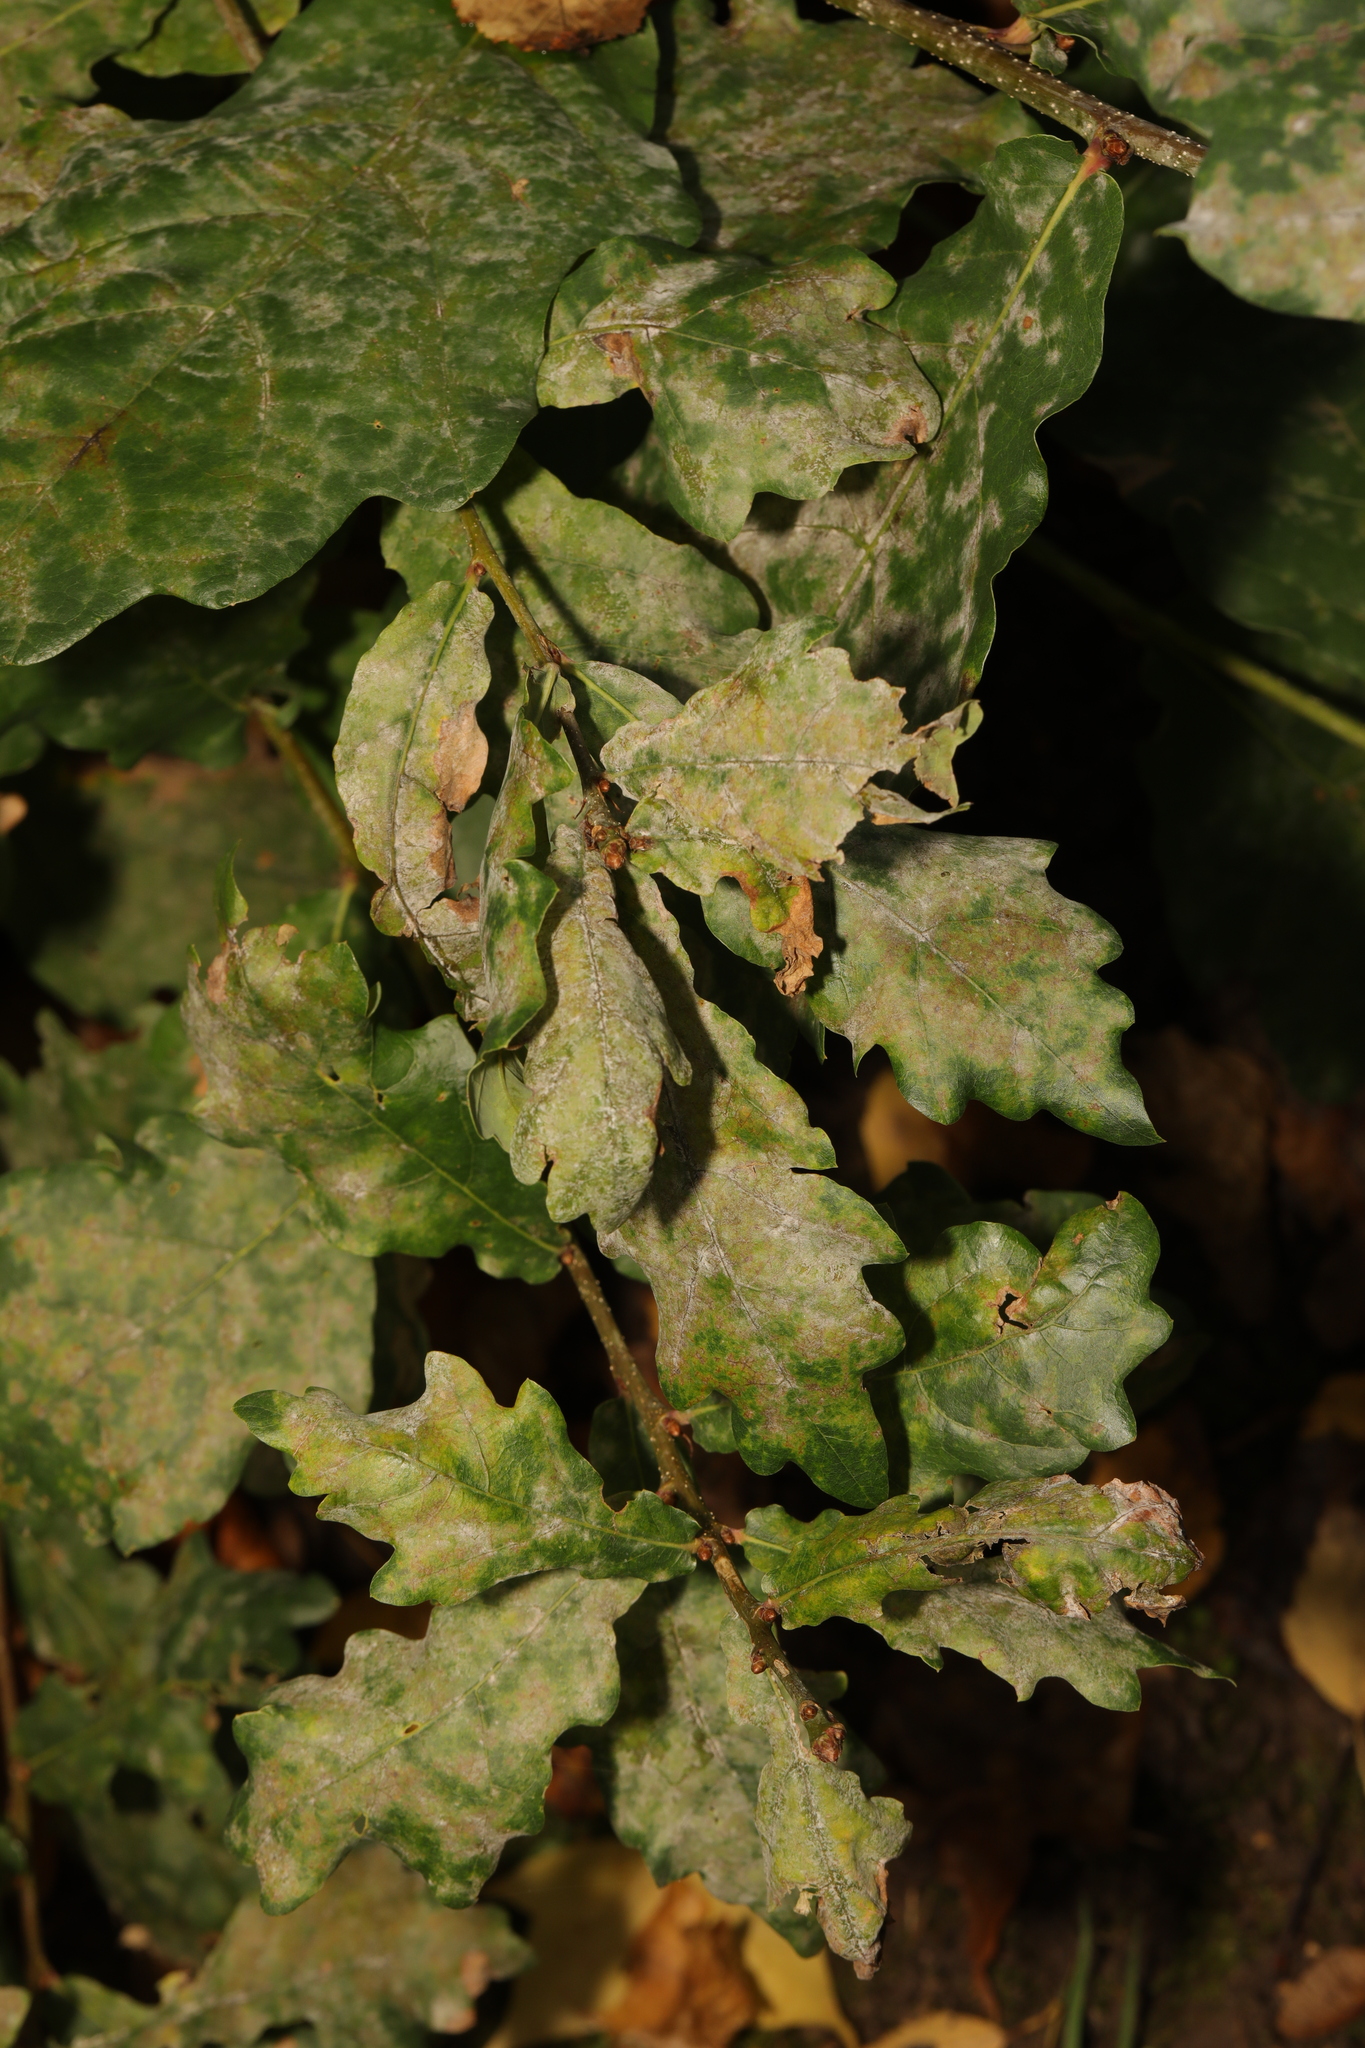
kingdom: Plantae
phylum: Tracheophyta
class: Magnoliopsida
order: Fagales
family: Fagaceae
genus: Quercus
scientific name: Quercus robur
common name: Pedunculate oak
